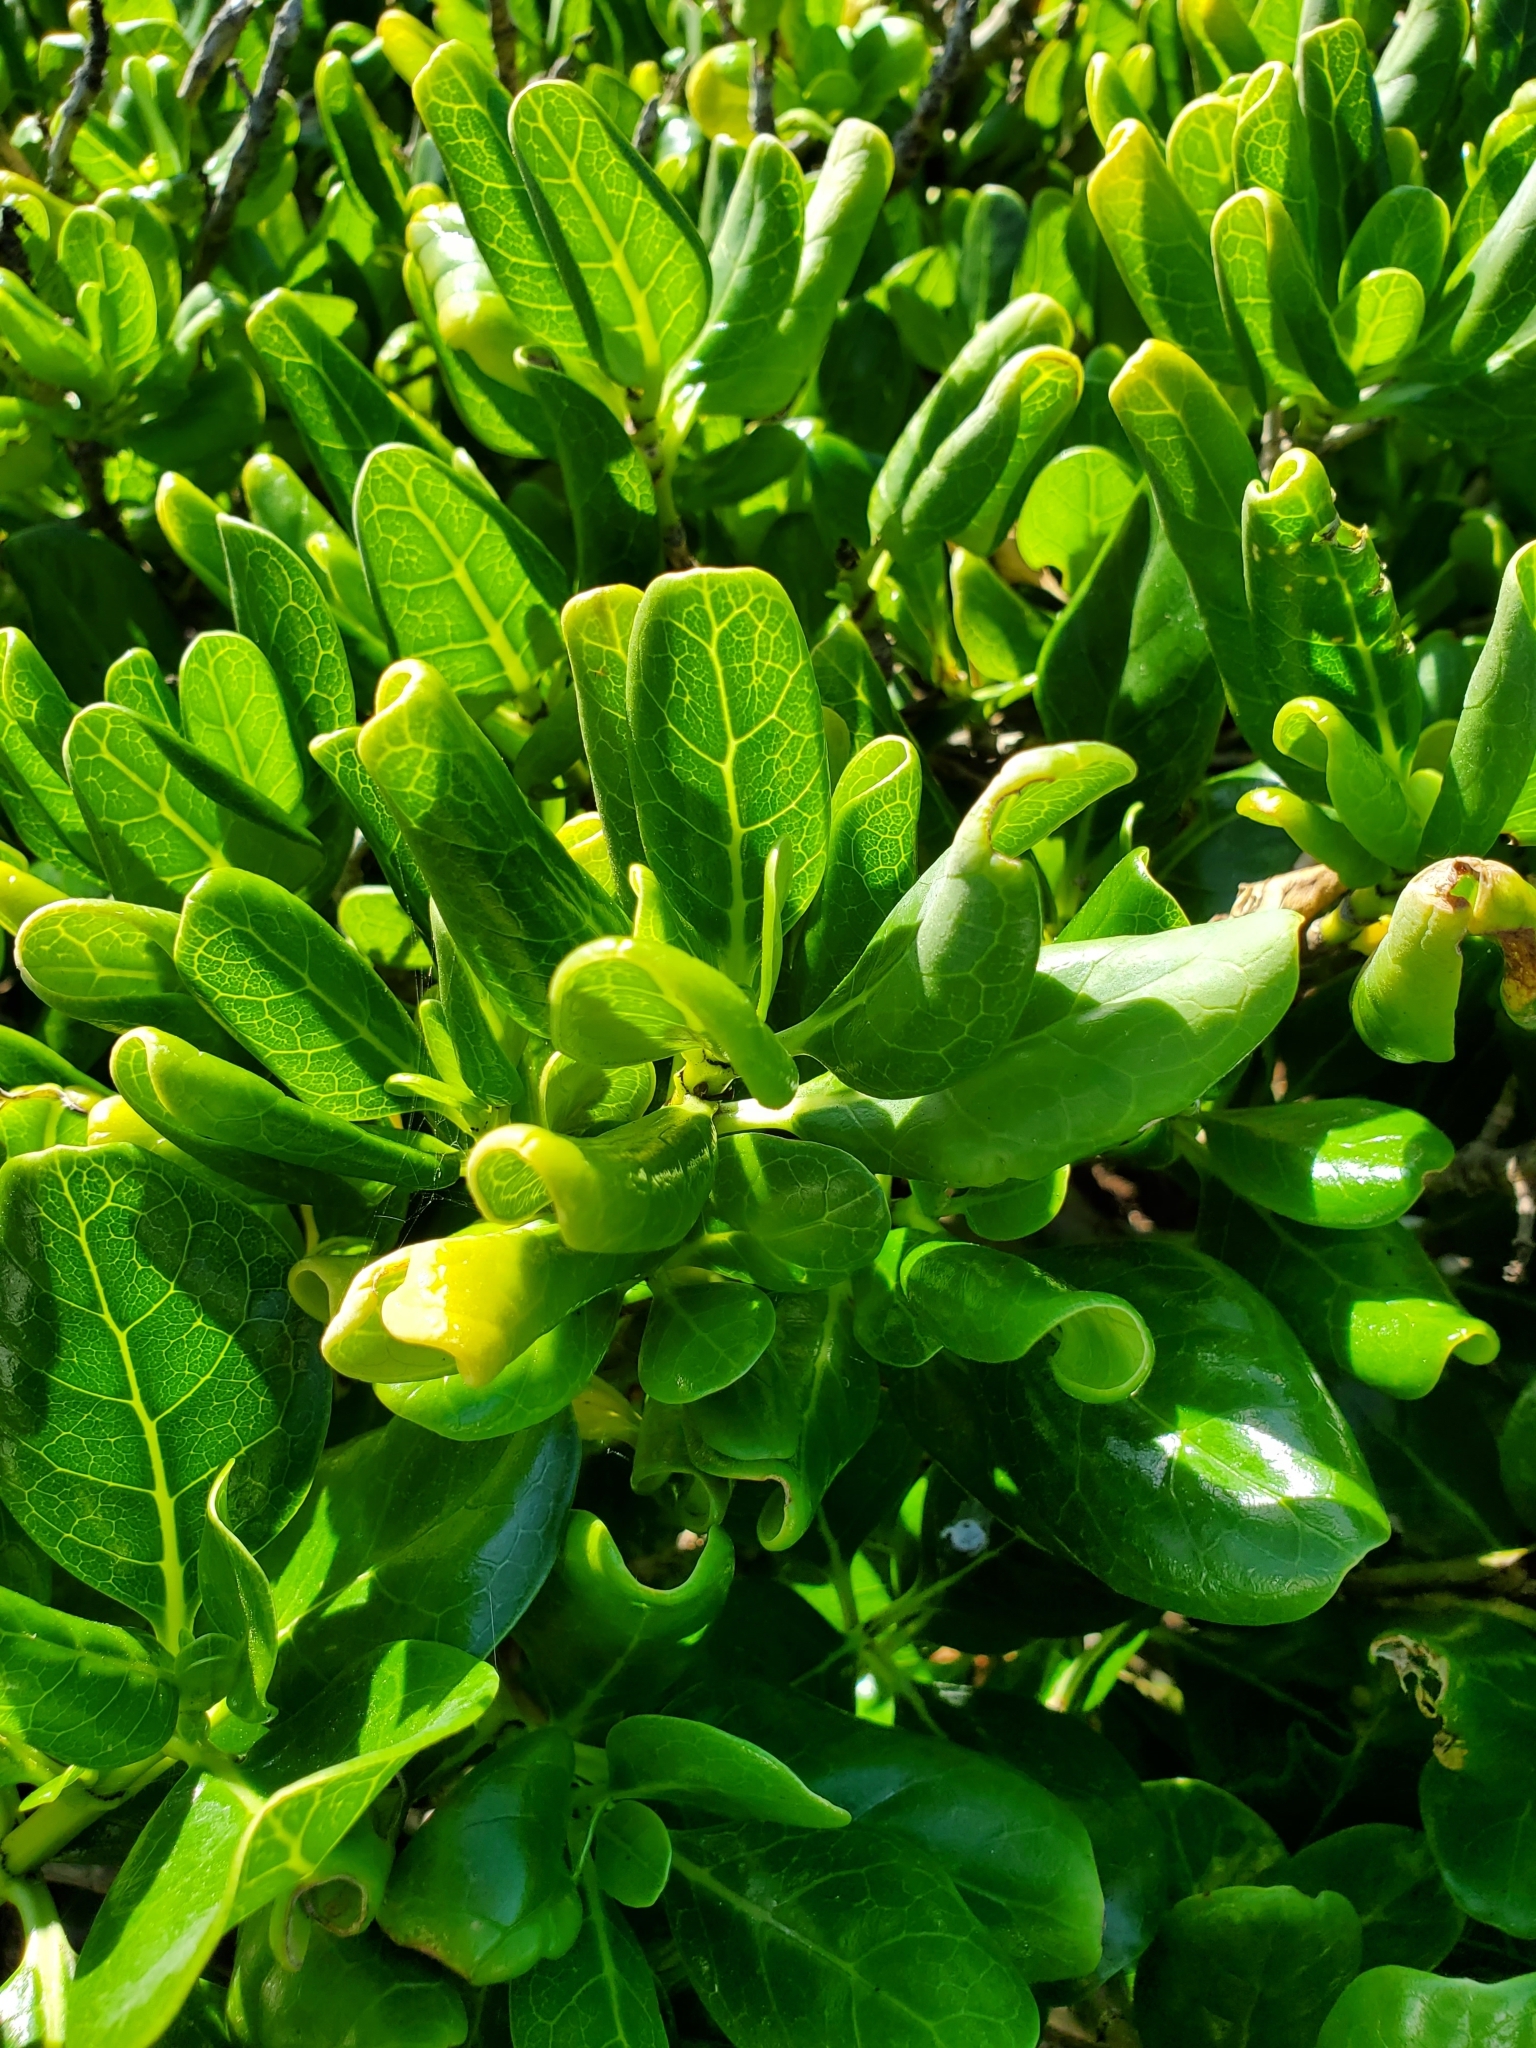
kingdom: Plantae
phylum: Tracheophyta
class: Magnoliopsida
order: Gentianales
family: Rubiaceae
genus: Coprosma
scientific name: Coprosma repens
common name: Tree bedstraw
